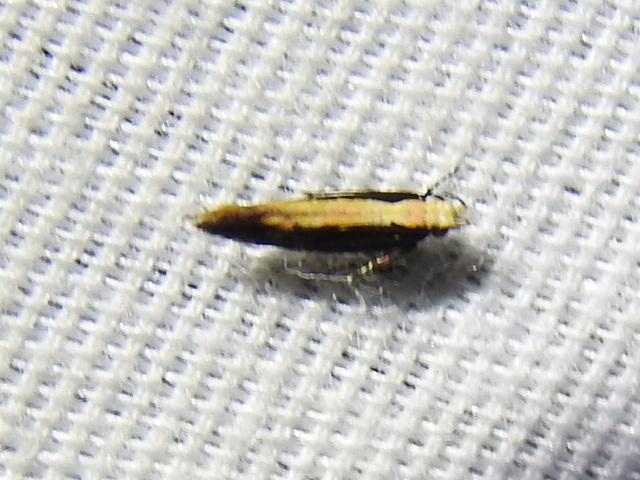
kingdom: Animalia
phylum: Arthropoda
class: Insecta
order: Lepidoptera
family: Gelechiidae
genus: Aristotelia
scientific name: Aristotelia corallina
